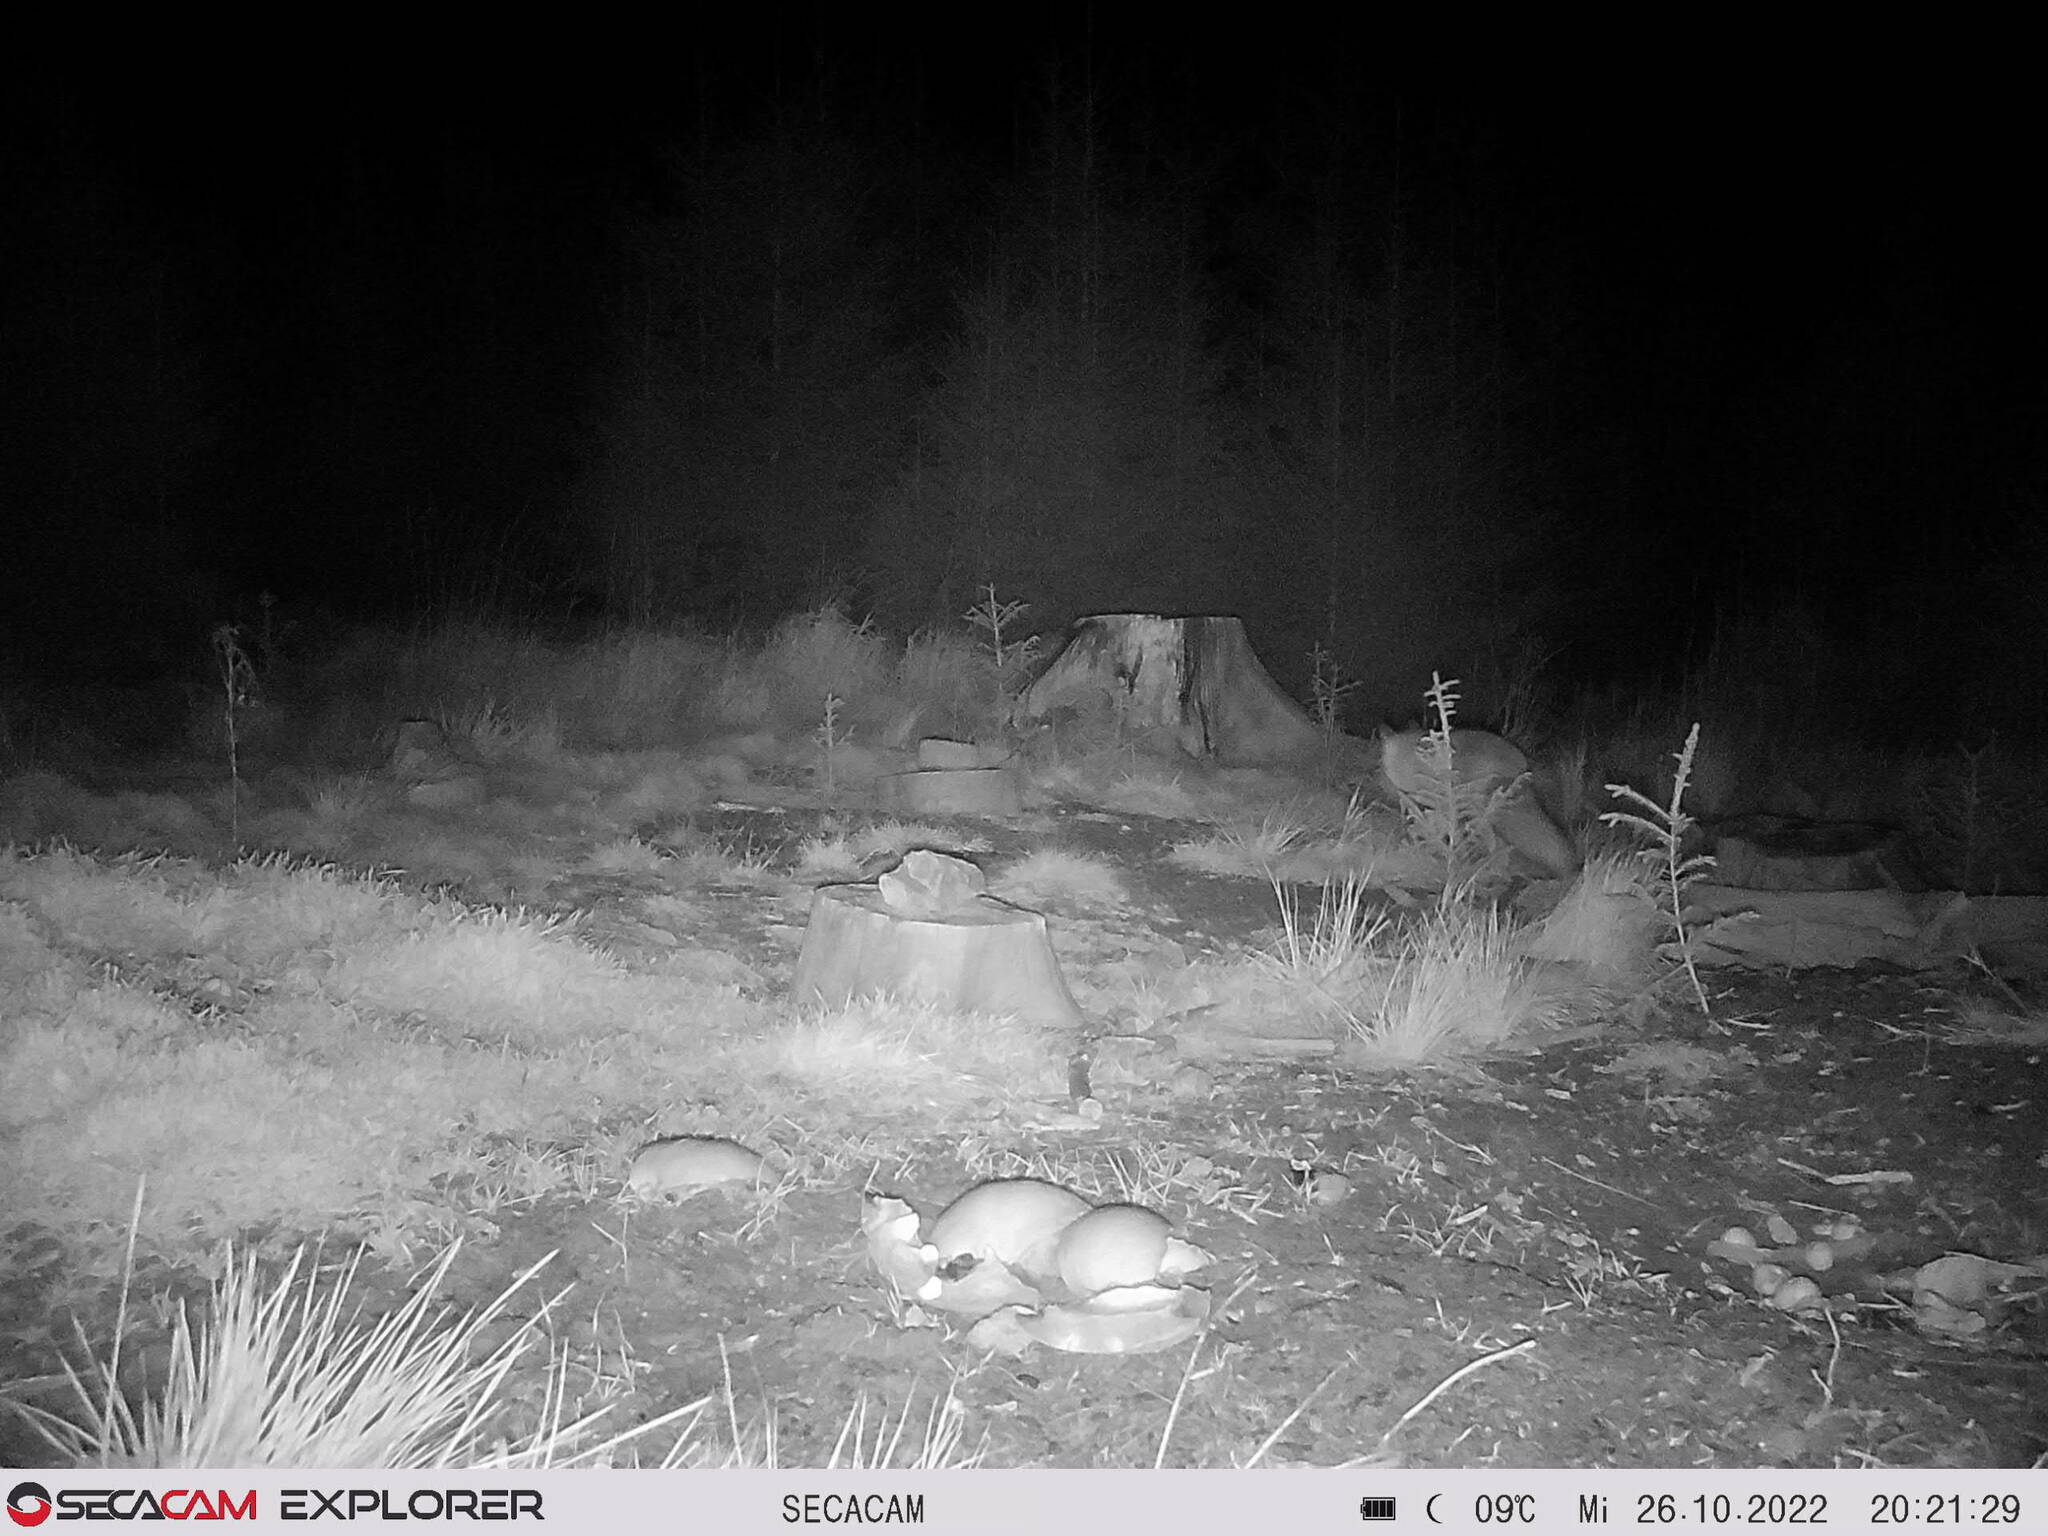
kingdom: Animalia
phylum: Chordata
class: Mammalia
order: Carnivora
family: Canidae
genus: Vulpes
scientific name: Vulpes vulpes
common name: Red fox
